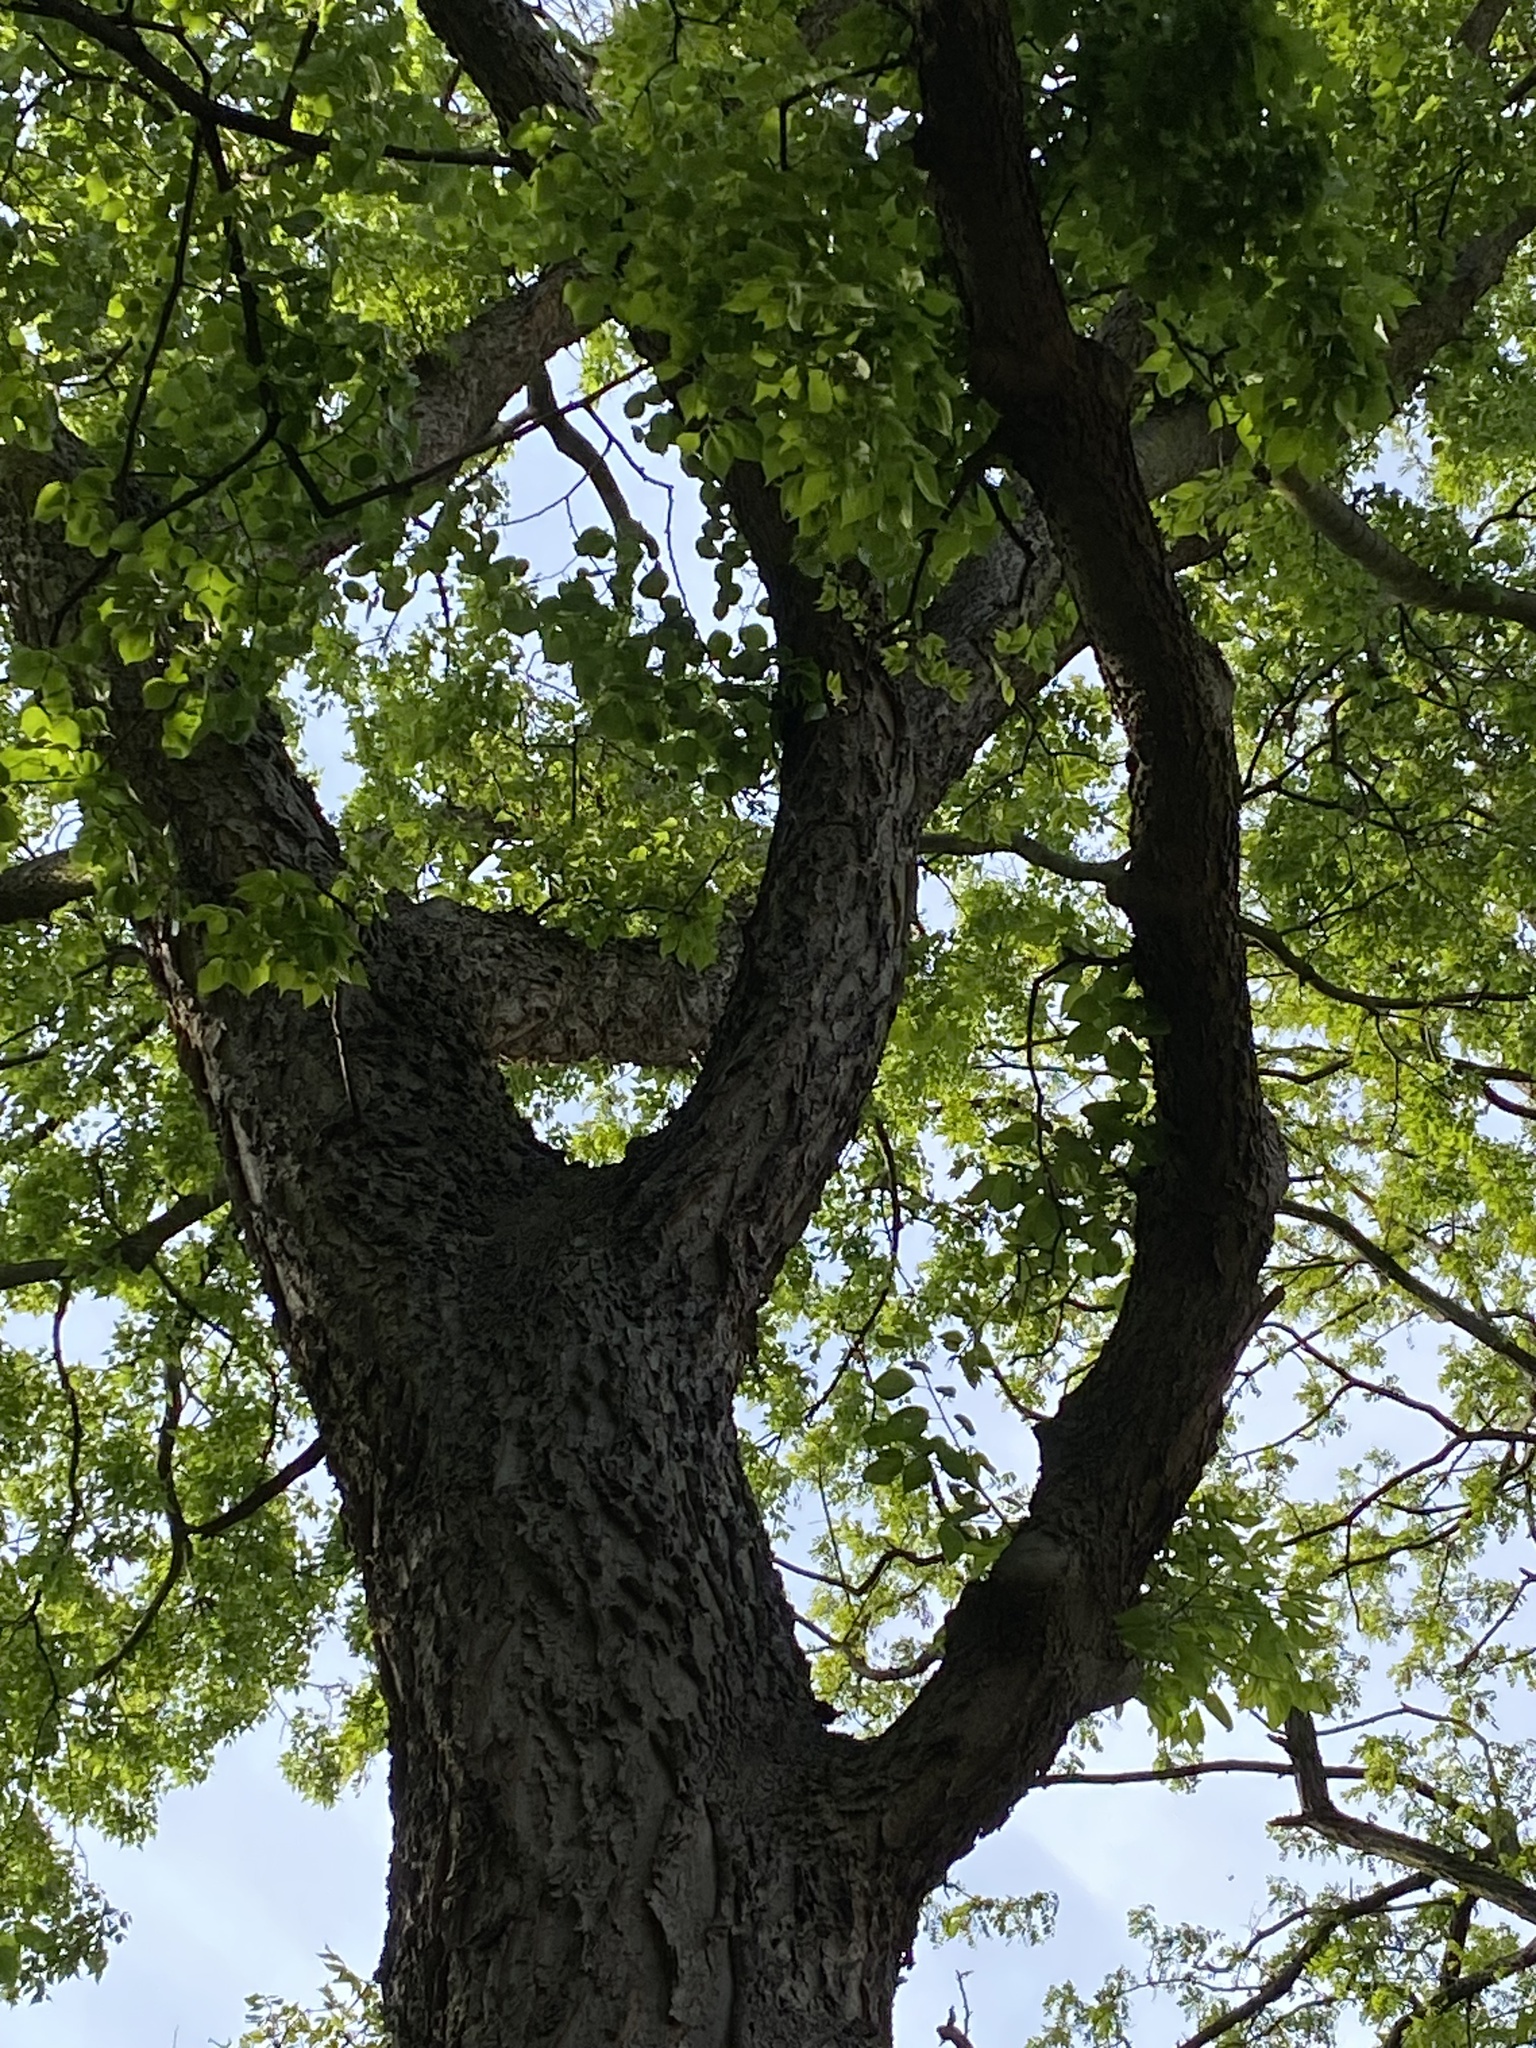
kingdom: Fungi
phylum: Basidiomycota
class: Agaricomycetes
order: Polyporales
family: Polyporaceae
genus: Cerioporus
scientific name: Cerioporus squamosus
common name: Dryad's saddle
